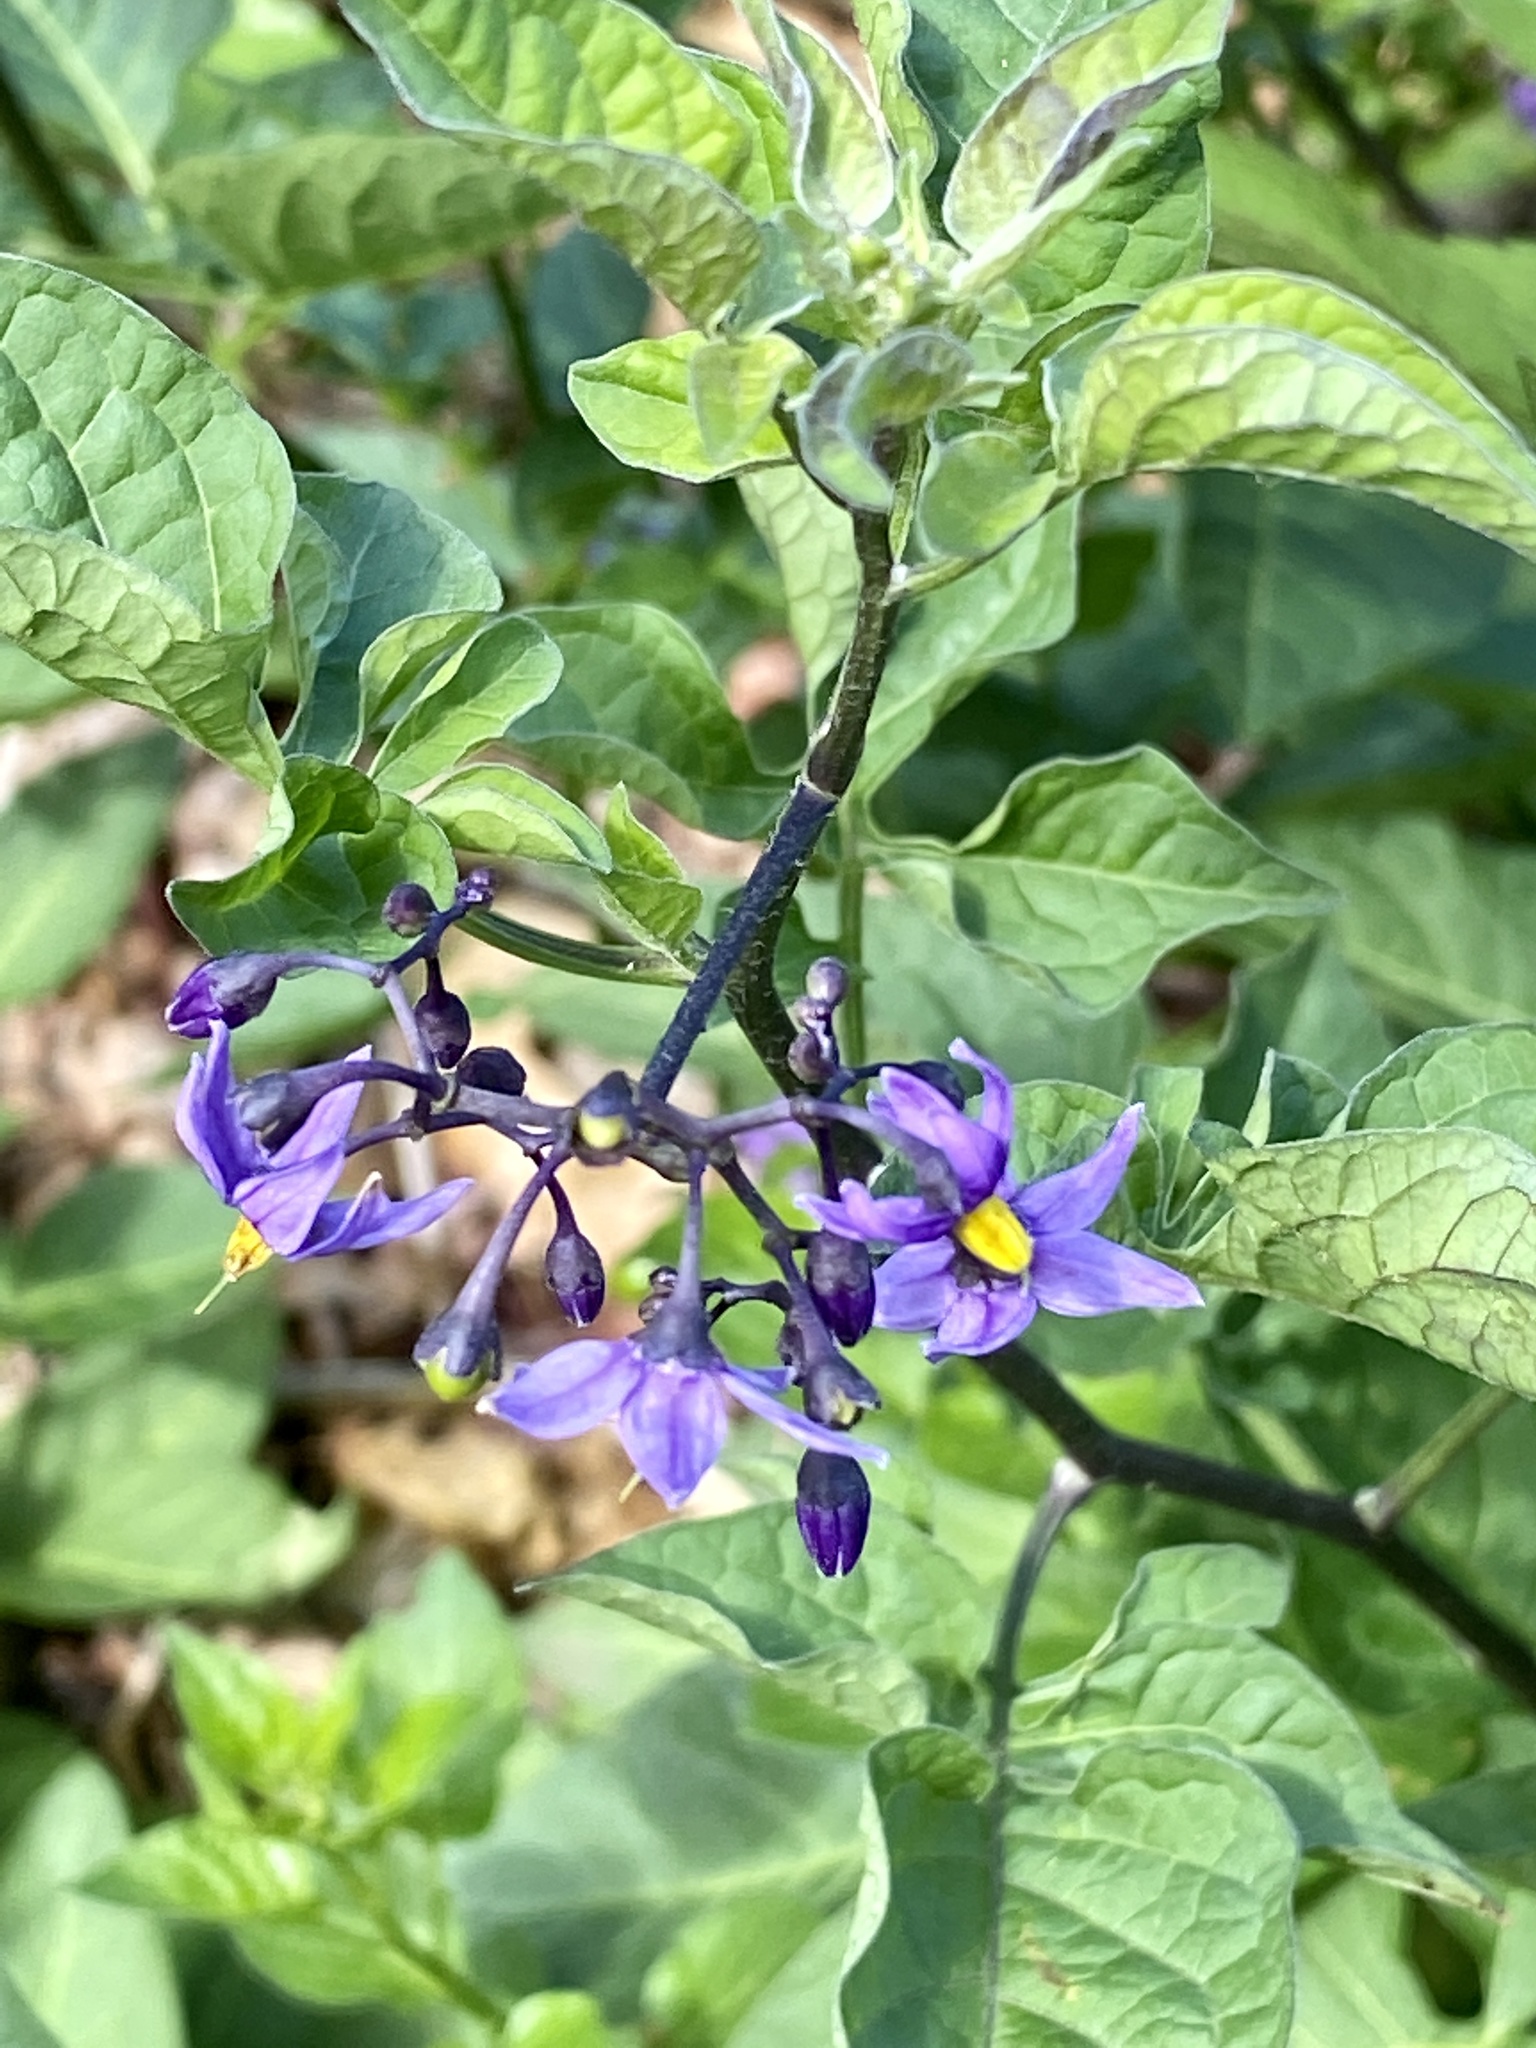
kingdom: Plantae
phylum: Tracheophyta
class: Magnoliopsida
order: Solanales
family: Solanaceae
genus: Solanum
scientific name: Solanum dulcamara
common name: Climbing nightshade
